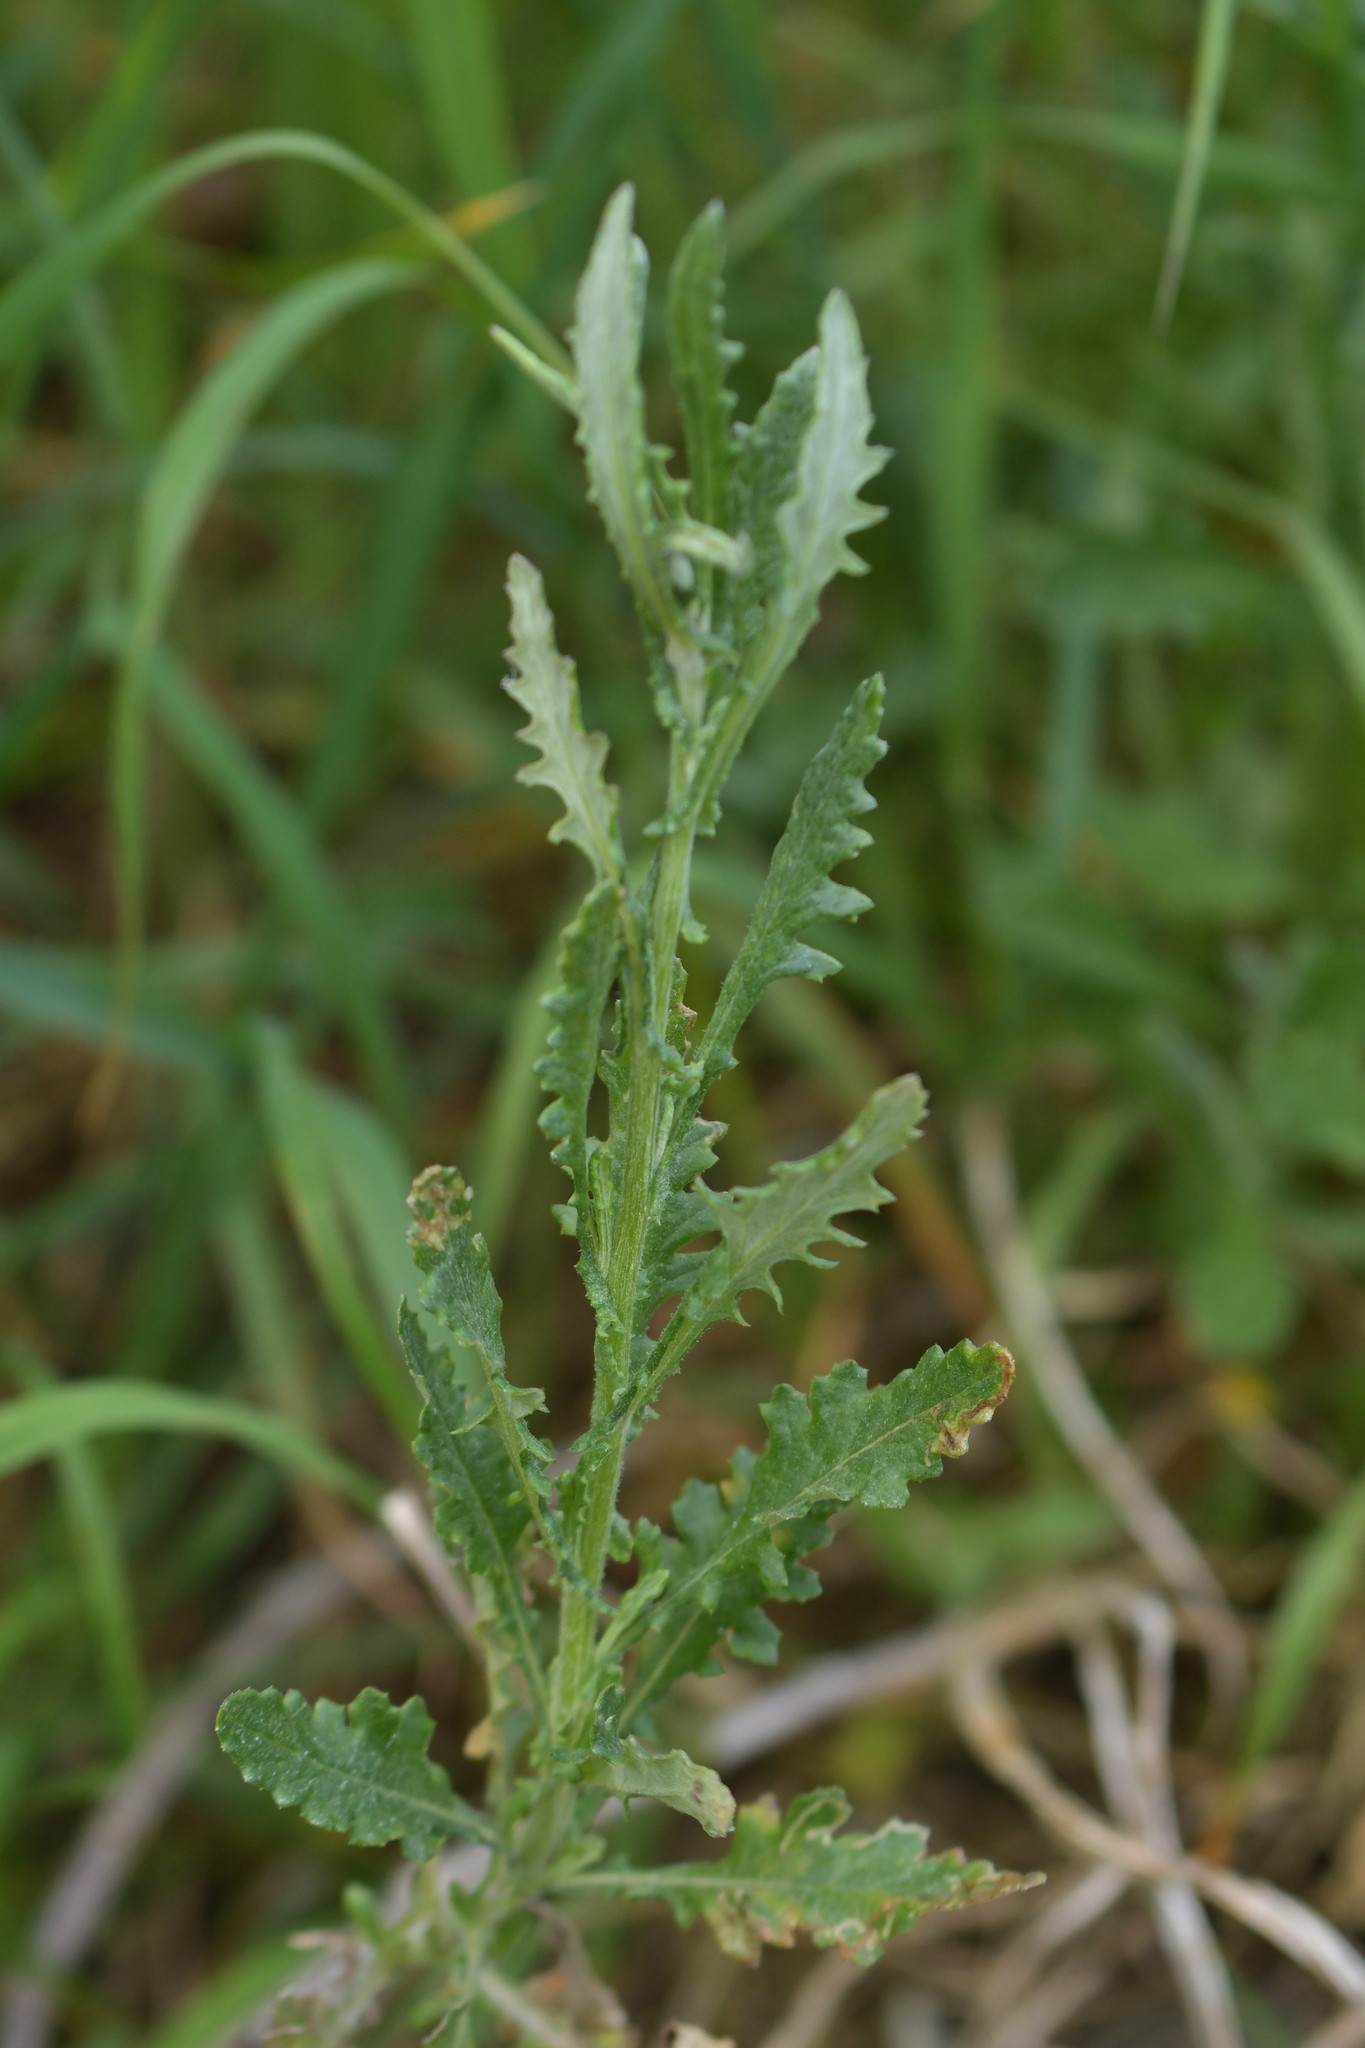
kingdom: Plantae
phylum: Tracheophyta
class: Magnoliopsida
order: Asterales
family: Asteraceae
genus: Senecio
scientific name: Senecio glomeratus
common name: Cutleaf burnweed
